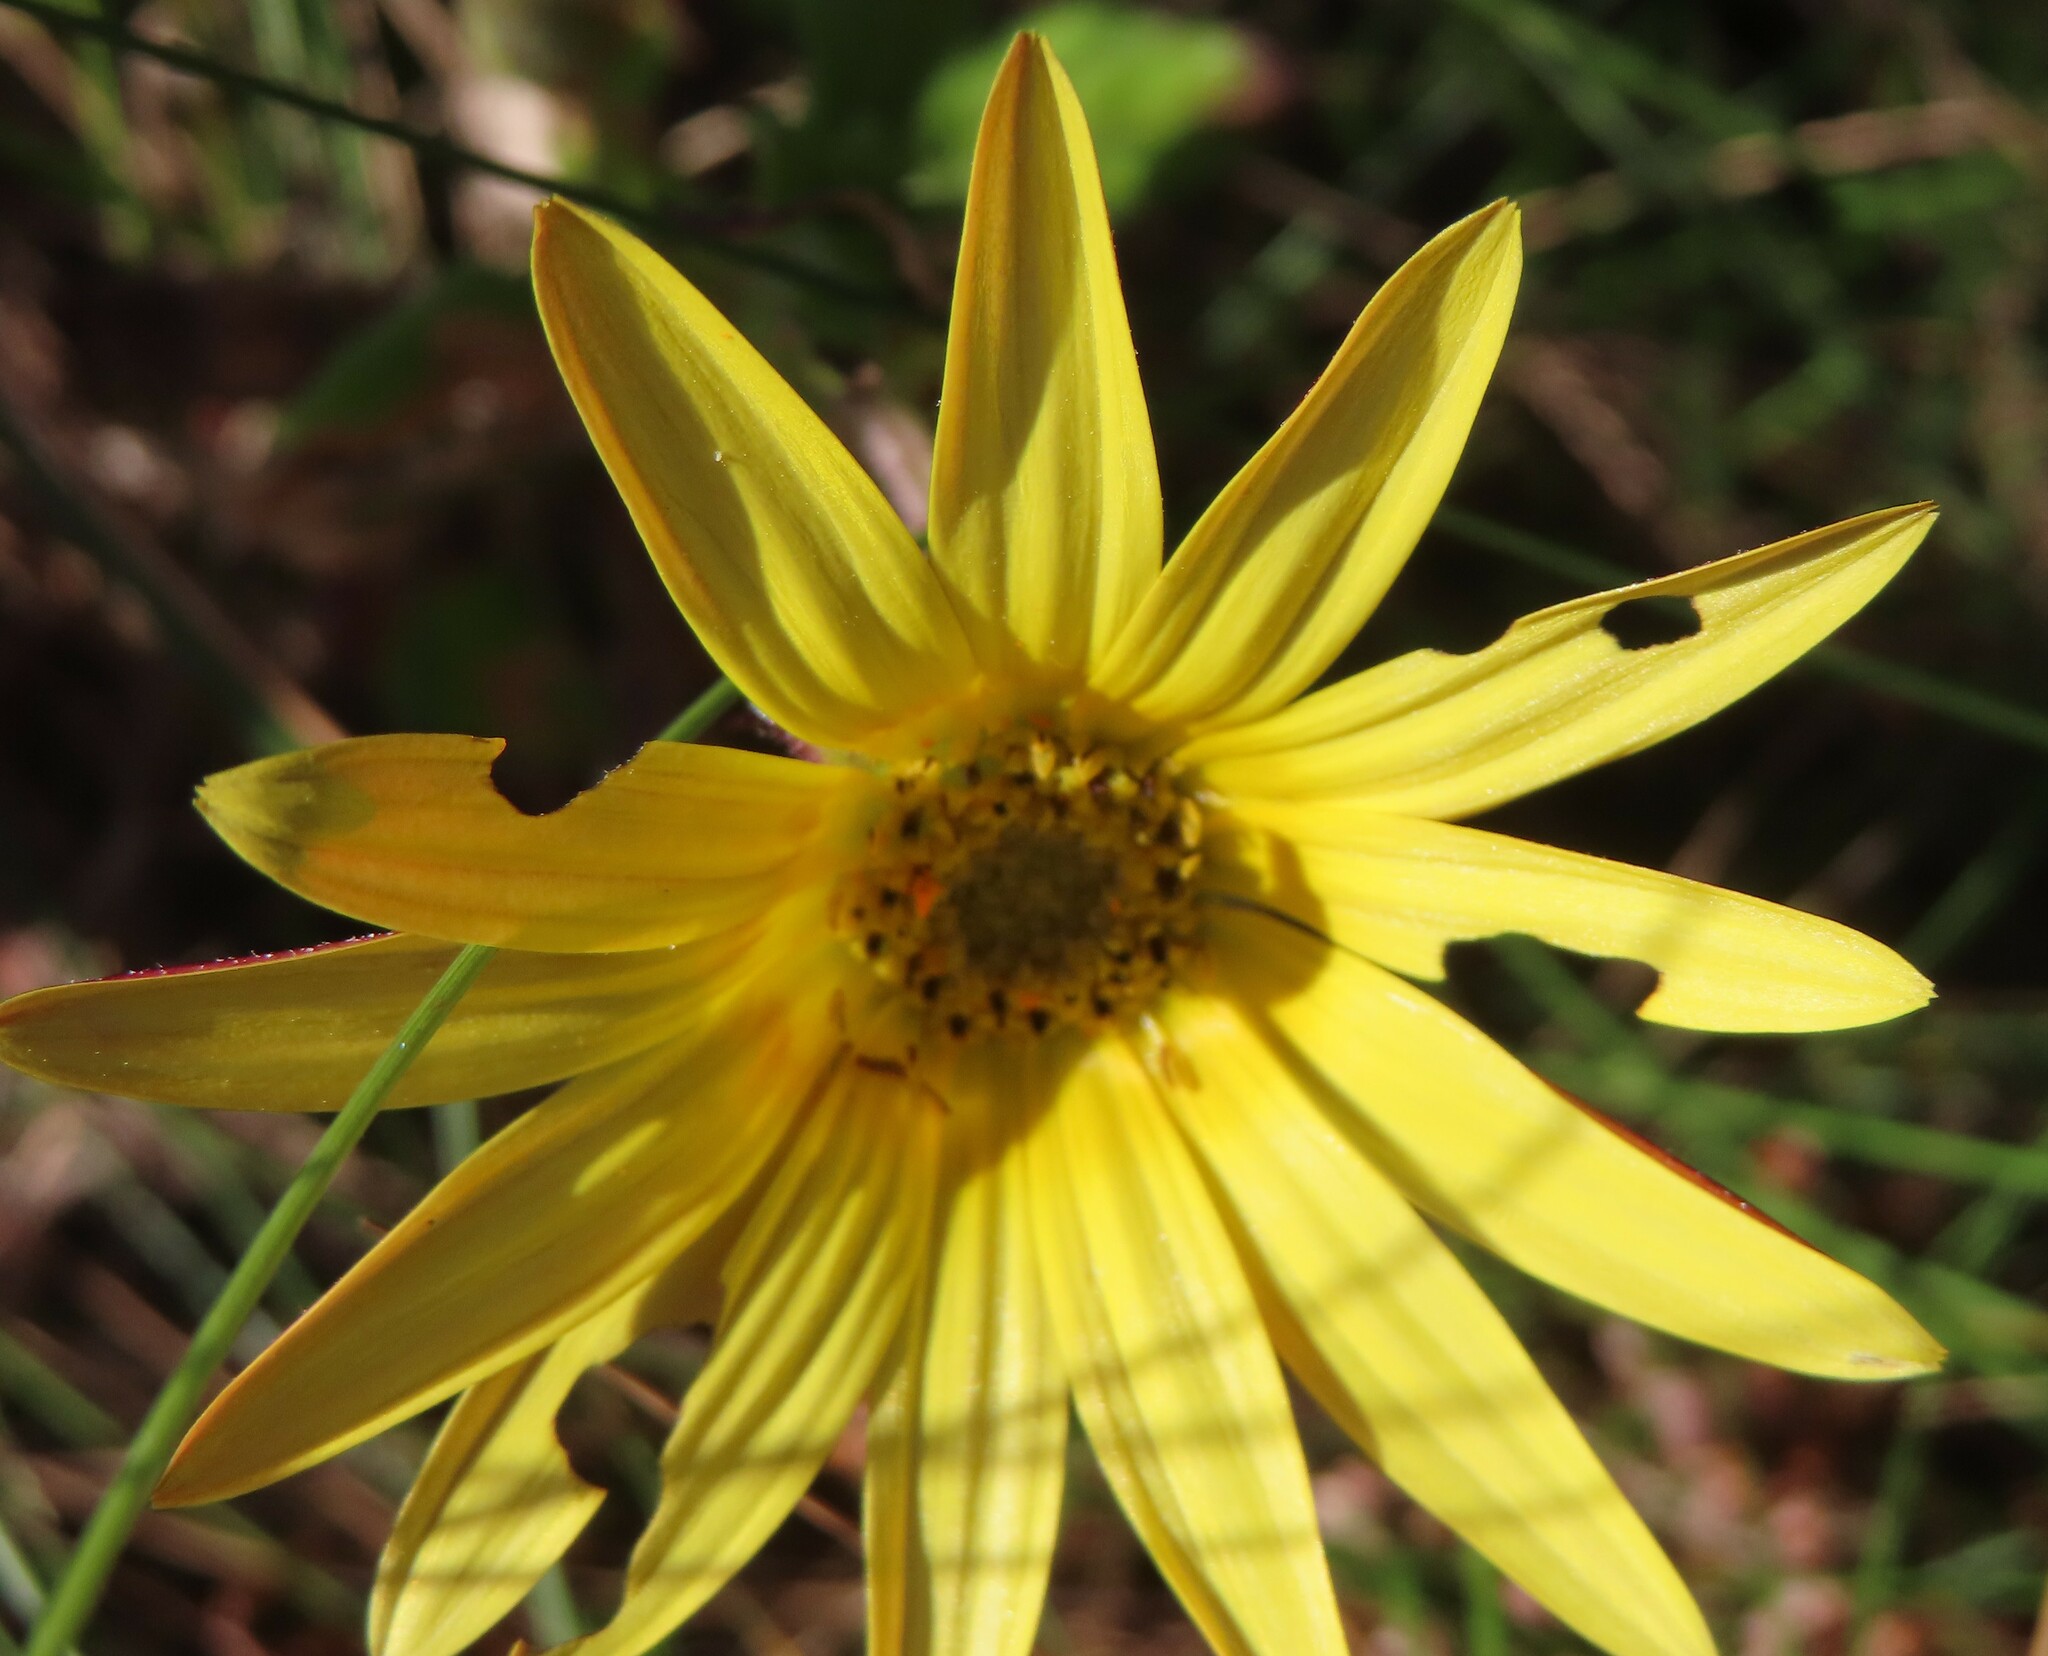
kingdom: Plantae
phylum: Tracheophyta
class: Magnoliopsida
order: Asterales
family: Asteraceae
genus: Arctotis
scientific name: Arctotis scabra
